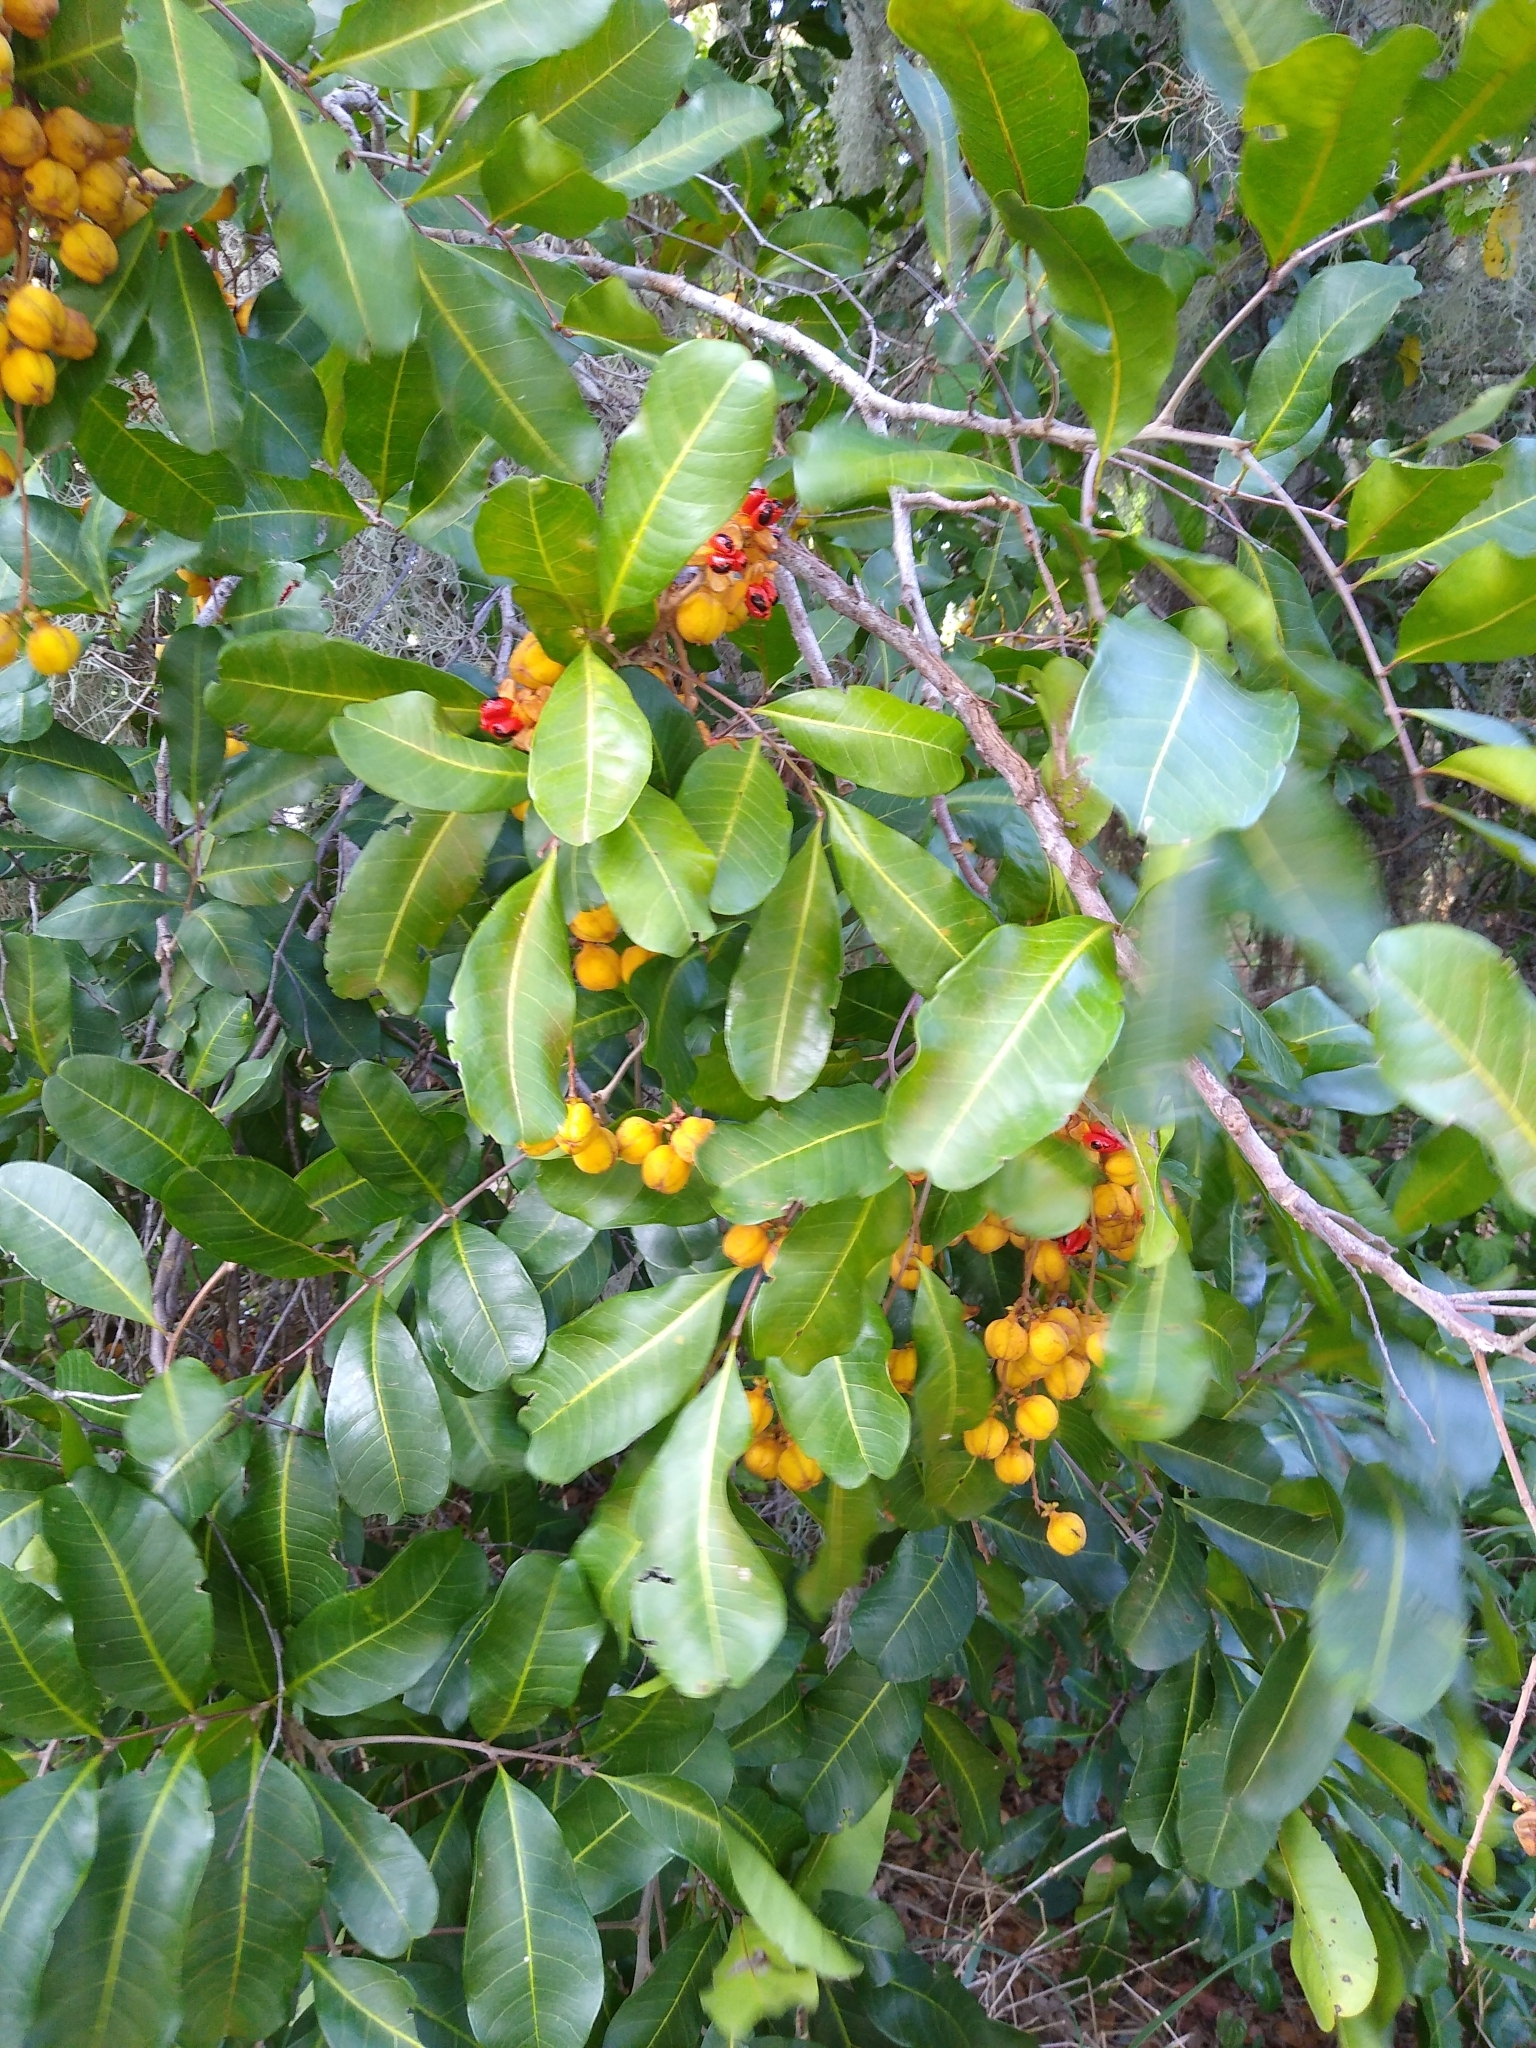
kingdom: Plantae
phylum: Tracheophyta
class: Magnoliopsida
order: Sapindales
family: Sapindaceae
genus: Cupaniopsis
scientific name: Cupaniopsis anacardioides
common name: Carrotwood
